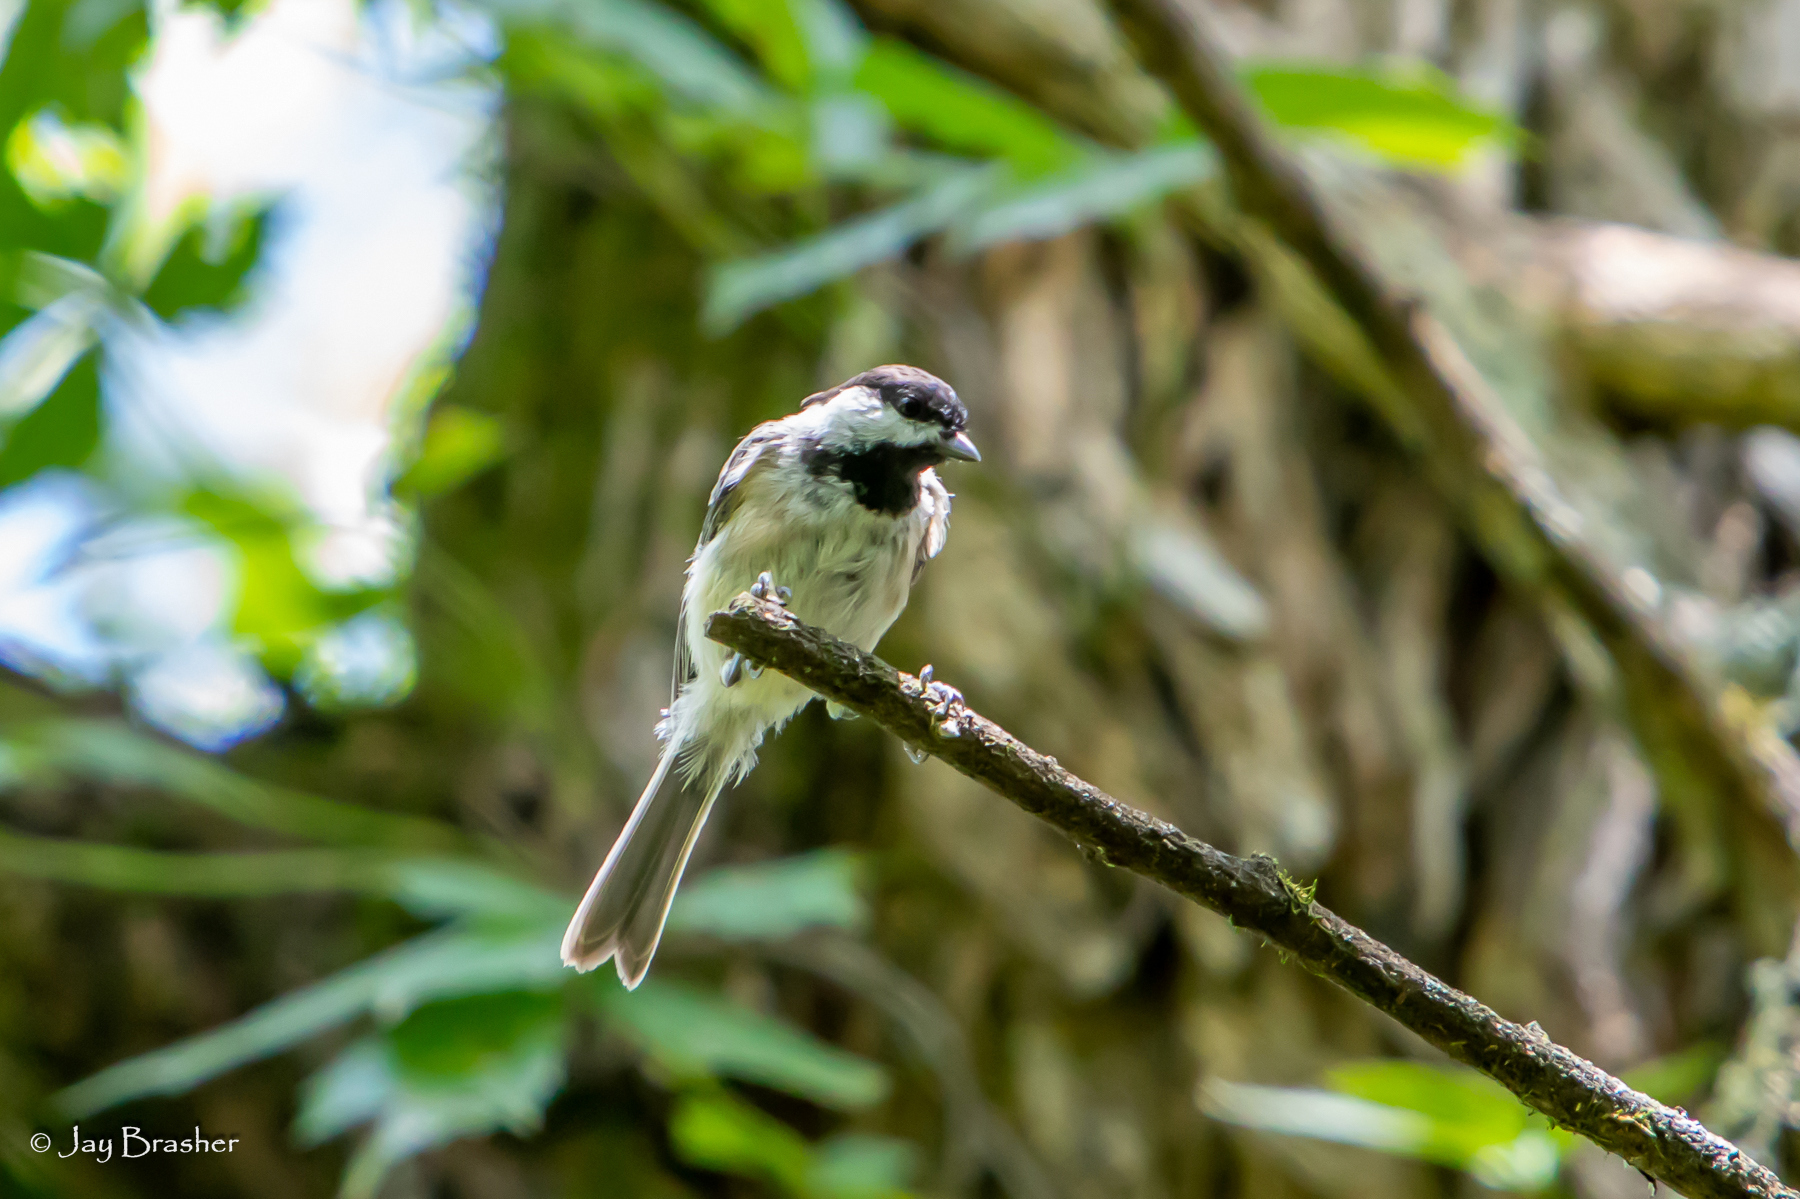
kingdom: Animalia
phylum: Chordata
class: Aves
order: Passeriformes
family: Paridae
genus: Poecile
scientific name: Poecile carolinensis
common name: Carolina chickadee
